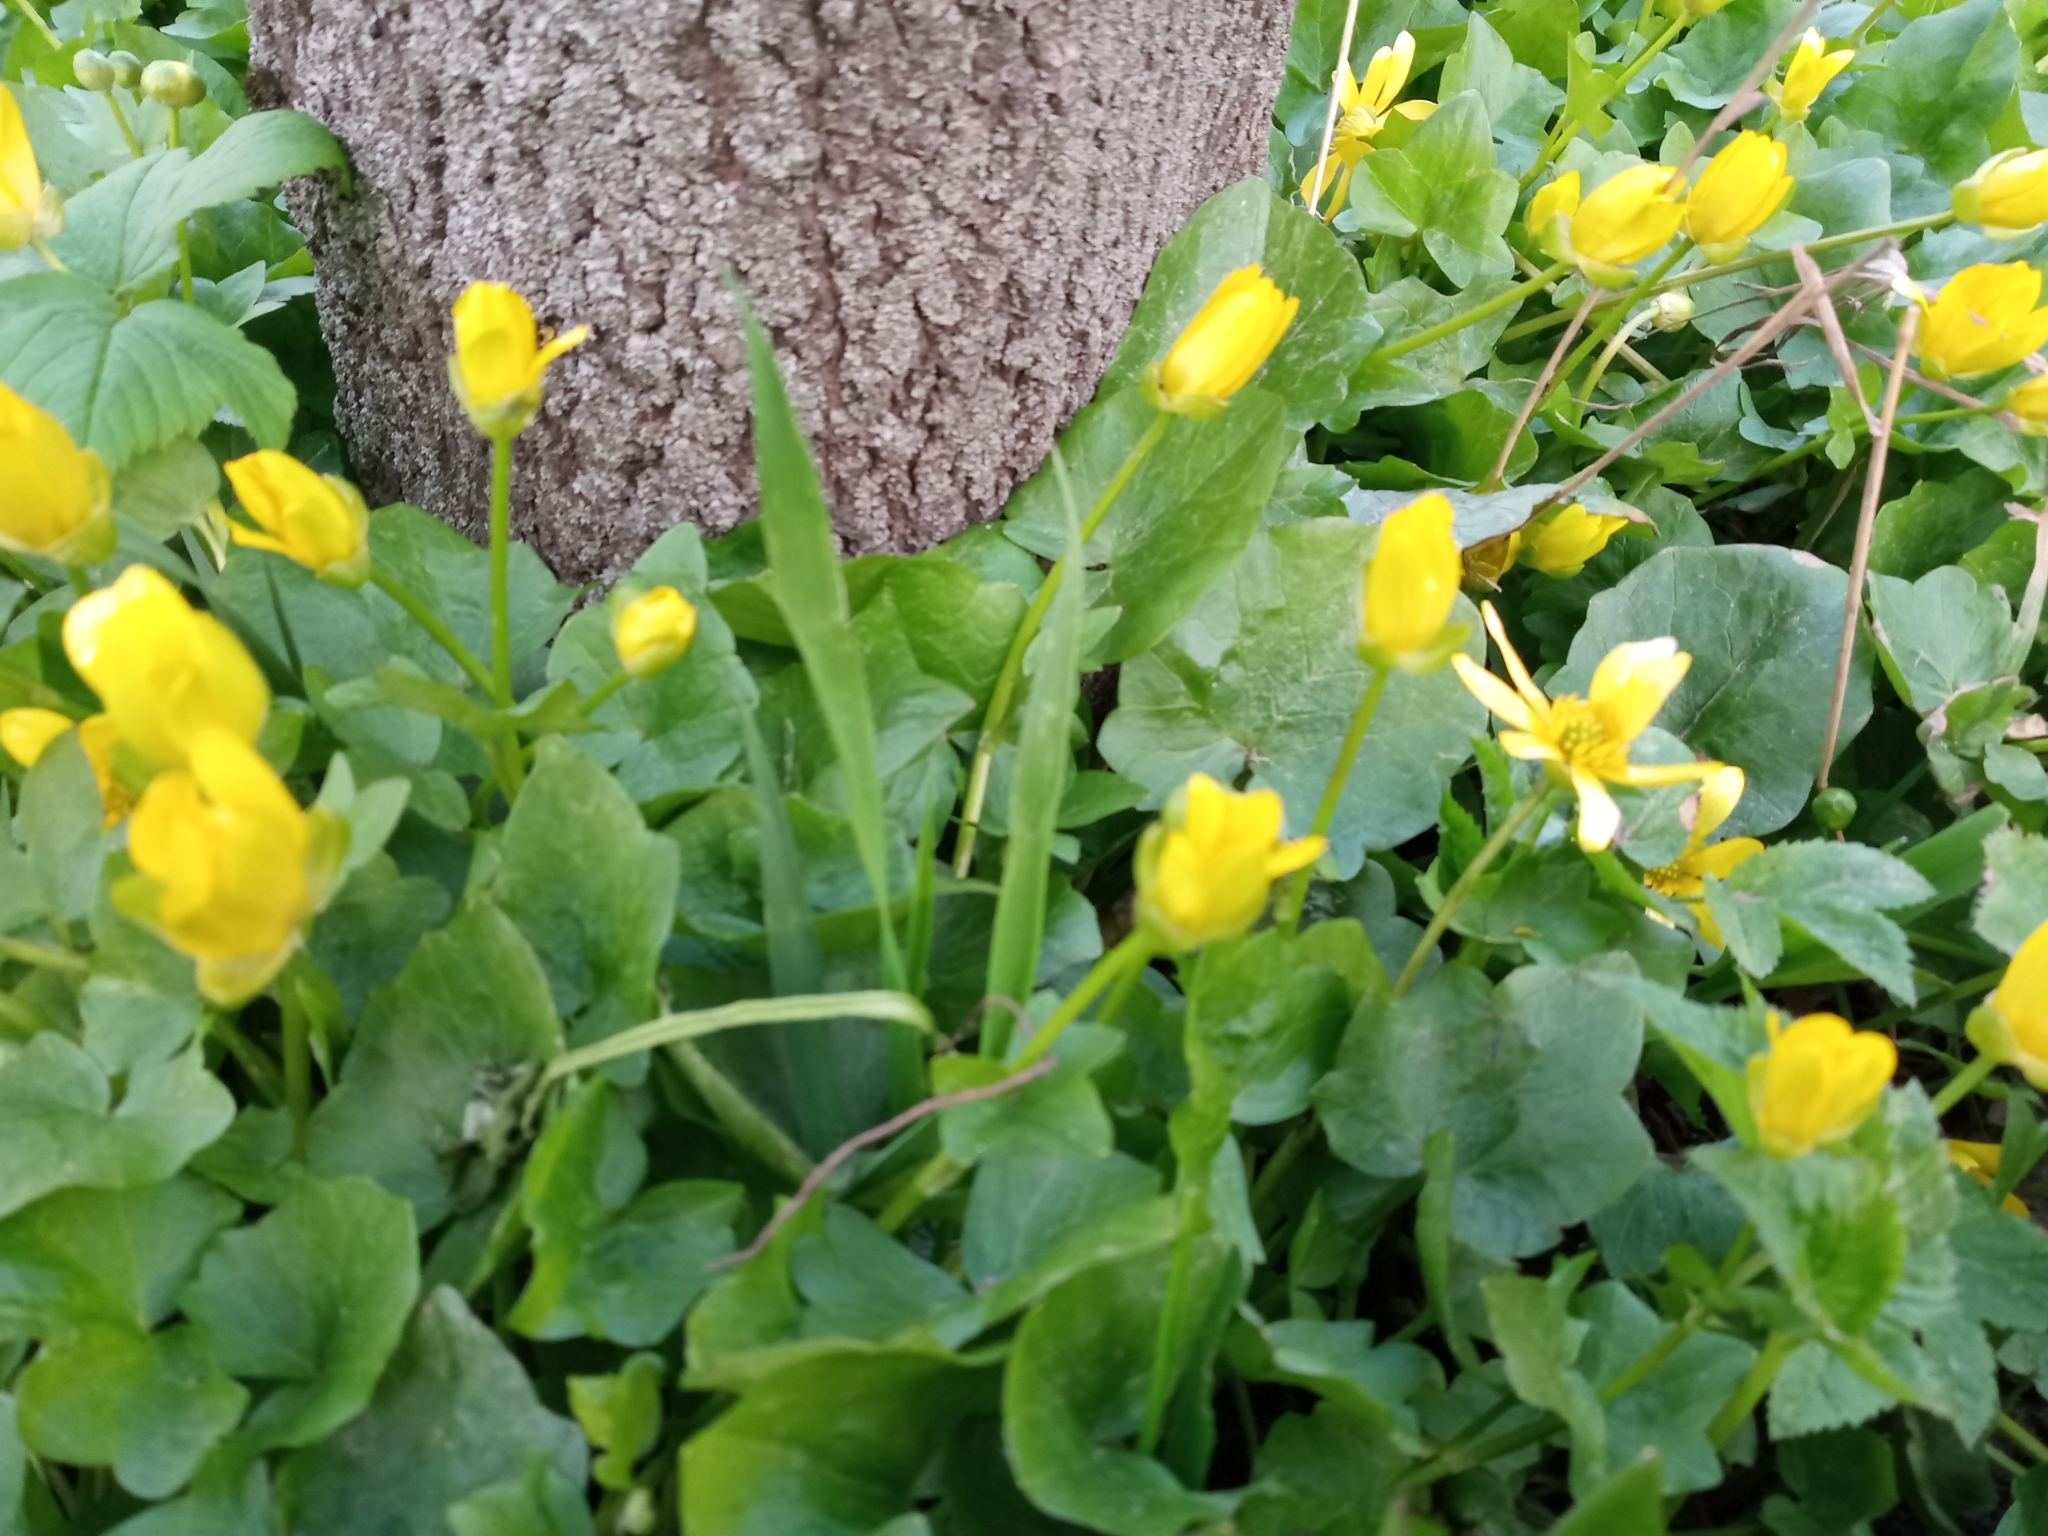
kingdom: Plantae
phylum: Tracheophyta
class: Magnoliopsida
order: Ranunculales
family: Ranunculaceae
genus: Ficaria
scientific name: Ficaria verna
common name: Lesser celandine
